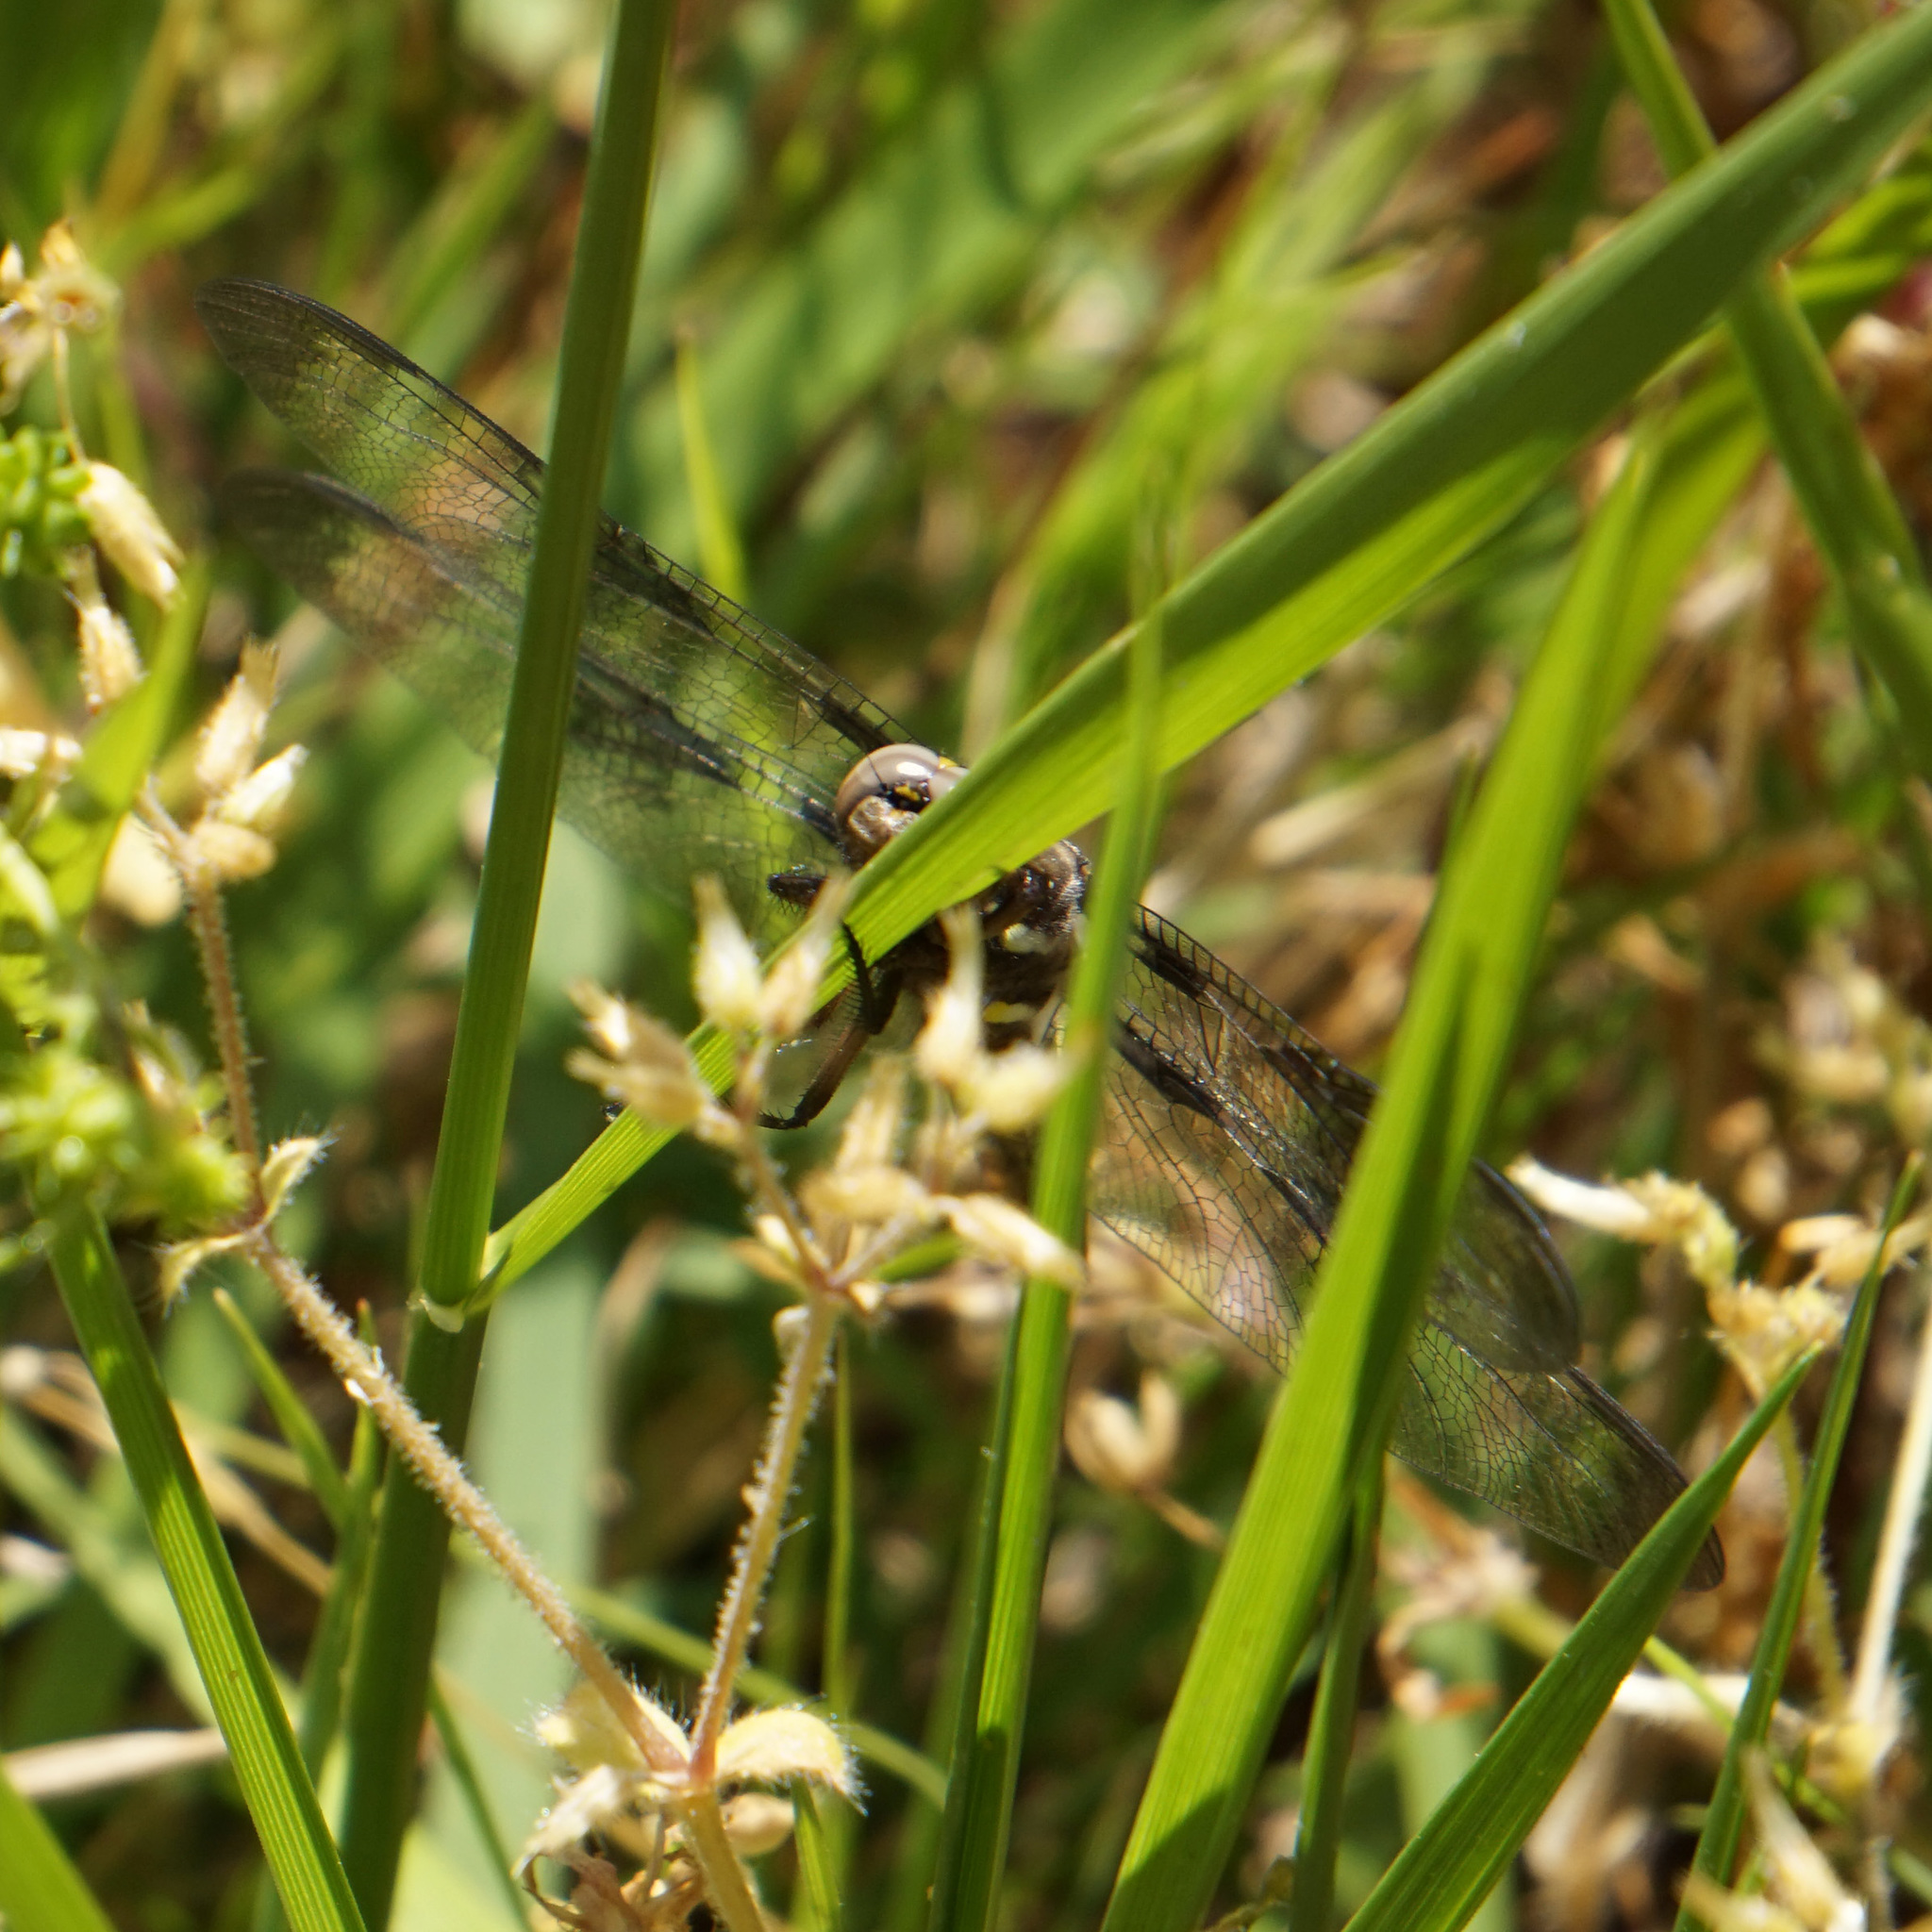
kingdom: Animalia
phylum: Arthropoda
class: Insecta
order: Odonata
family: Libellulidae
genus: Plathemis
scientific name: Plathemis lydia
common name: Common whitetail
